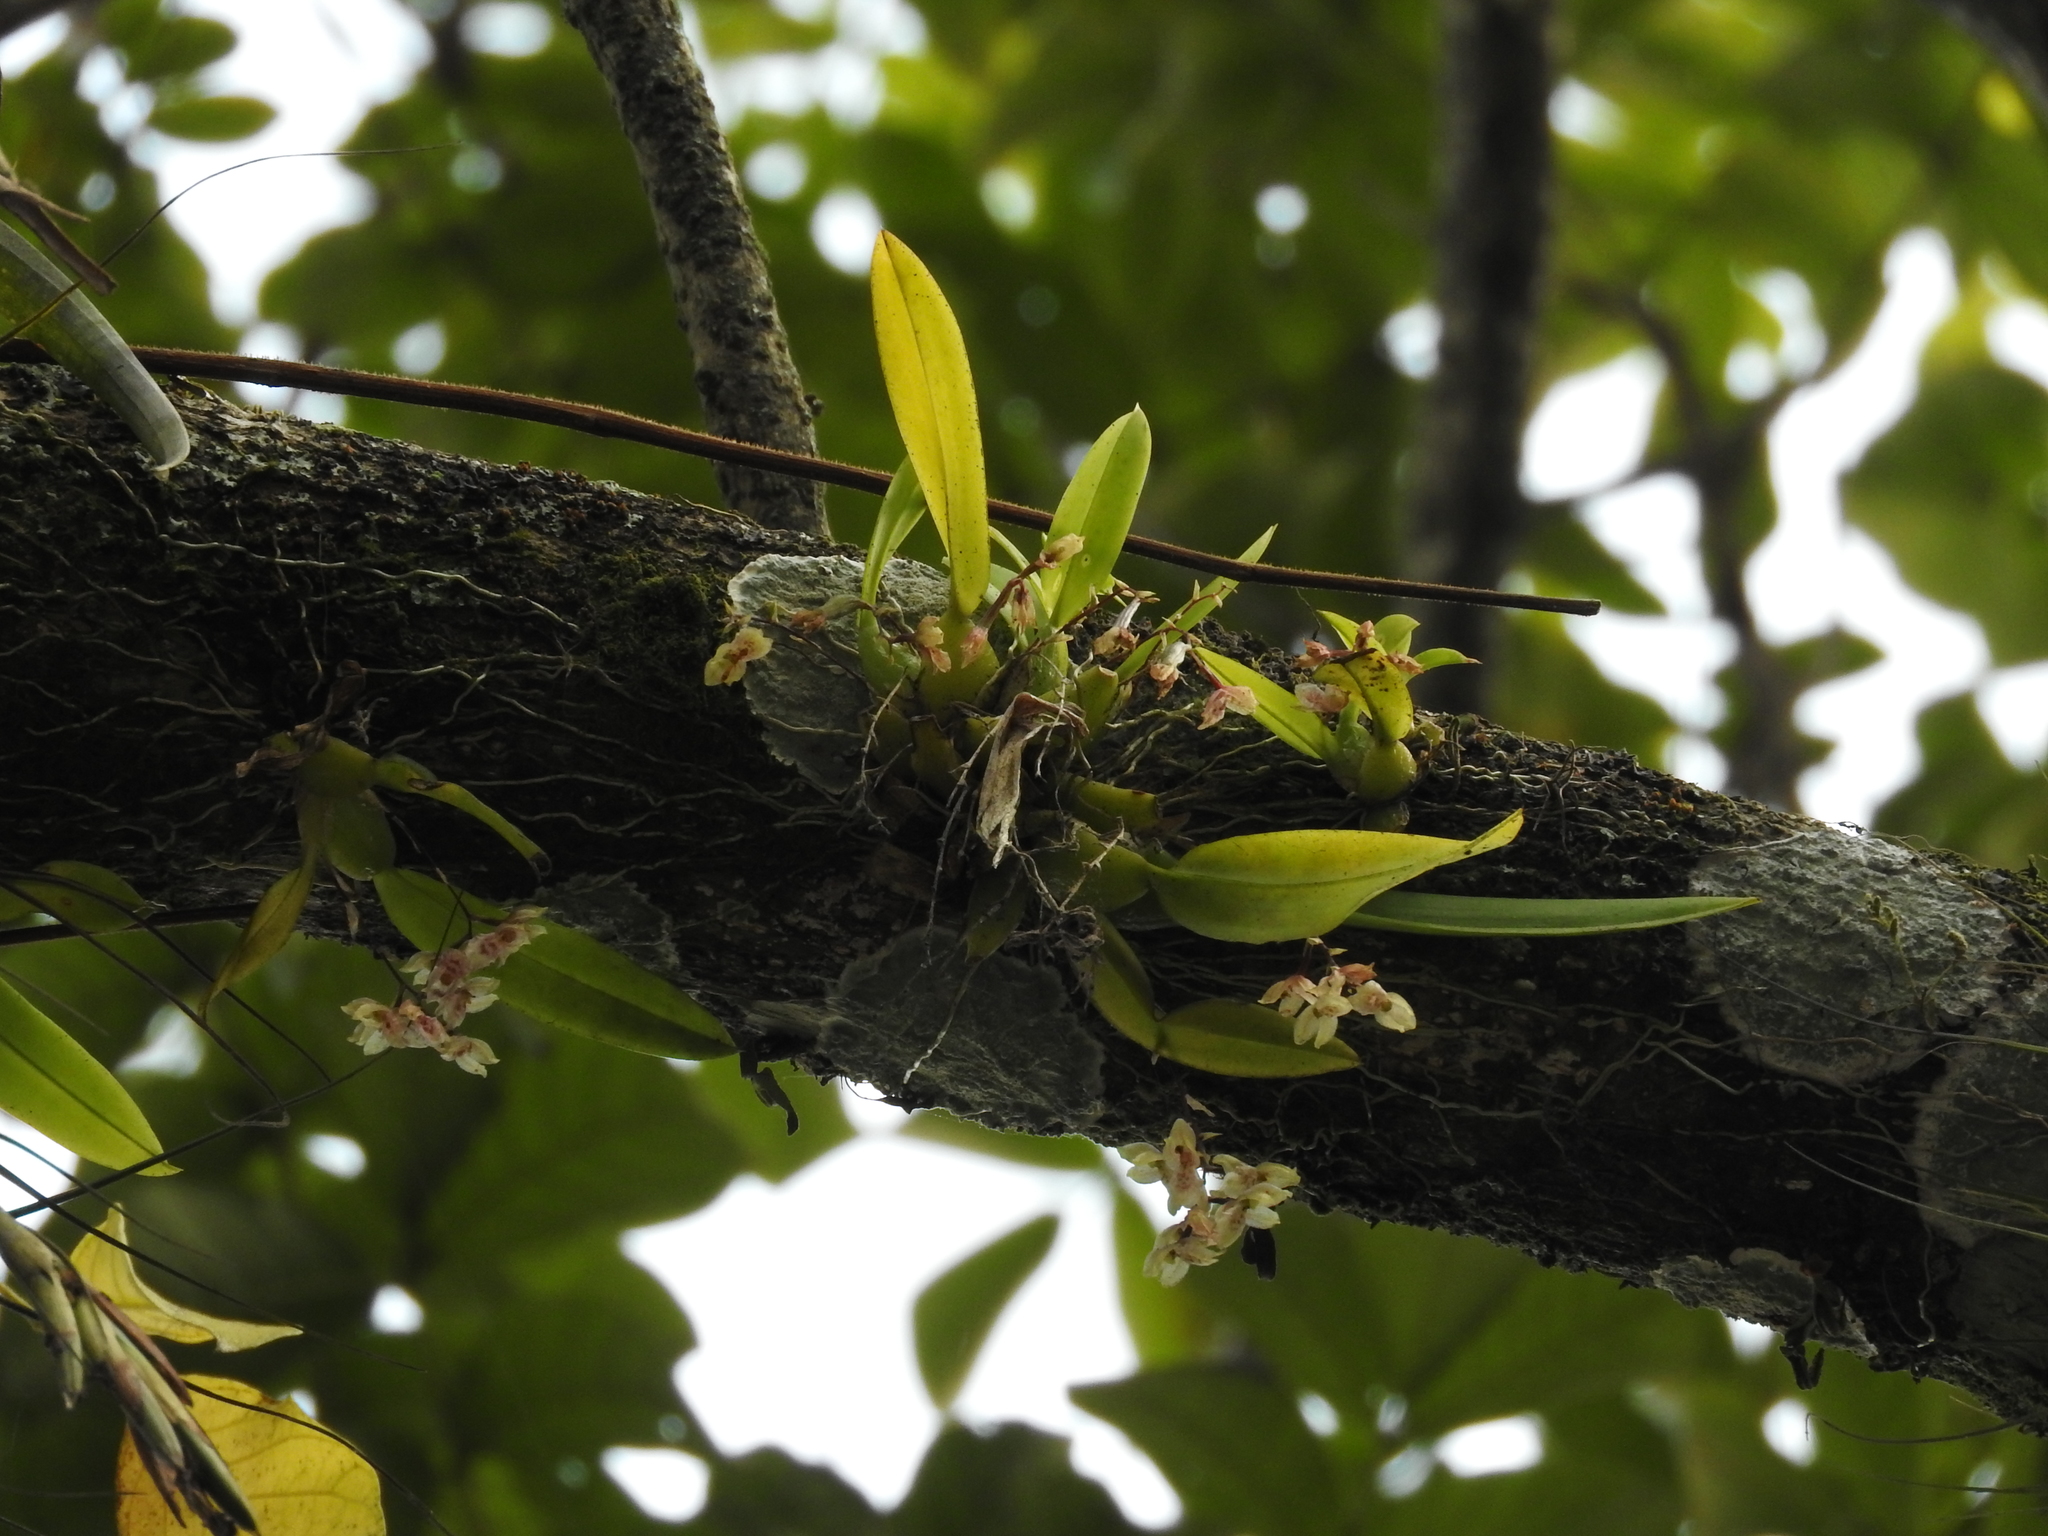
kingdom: Plantae
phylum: Tracheophyta
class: Liliopsida
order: Asparagales
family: Orchidaceae
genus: Leochilus
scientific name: Leochilus oncidioides
